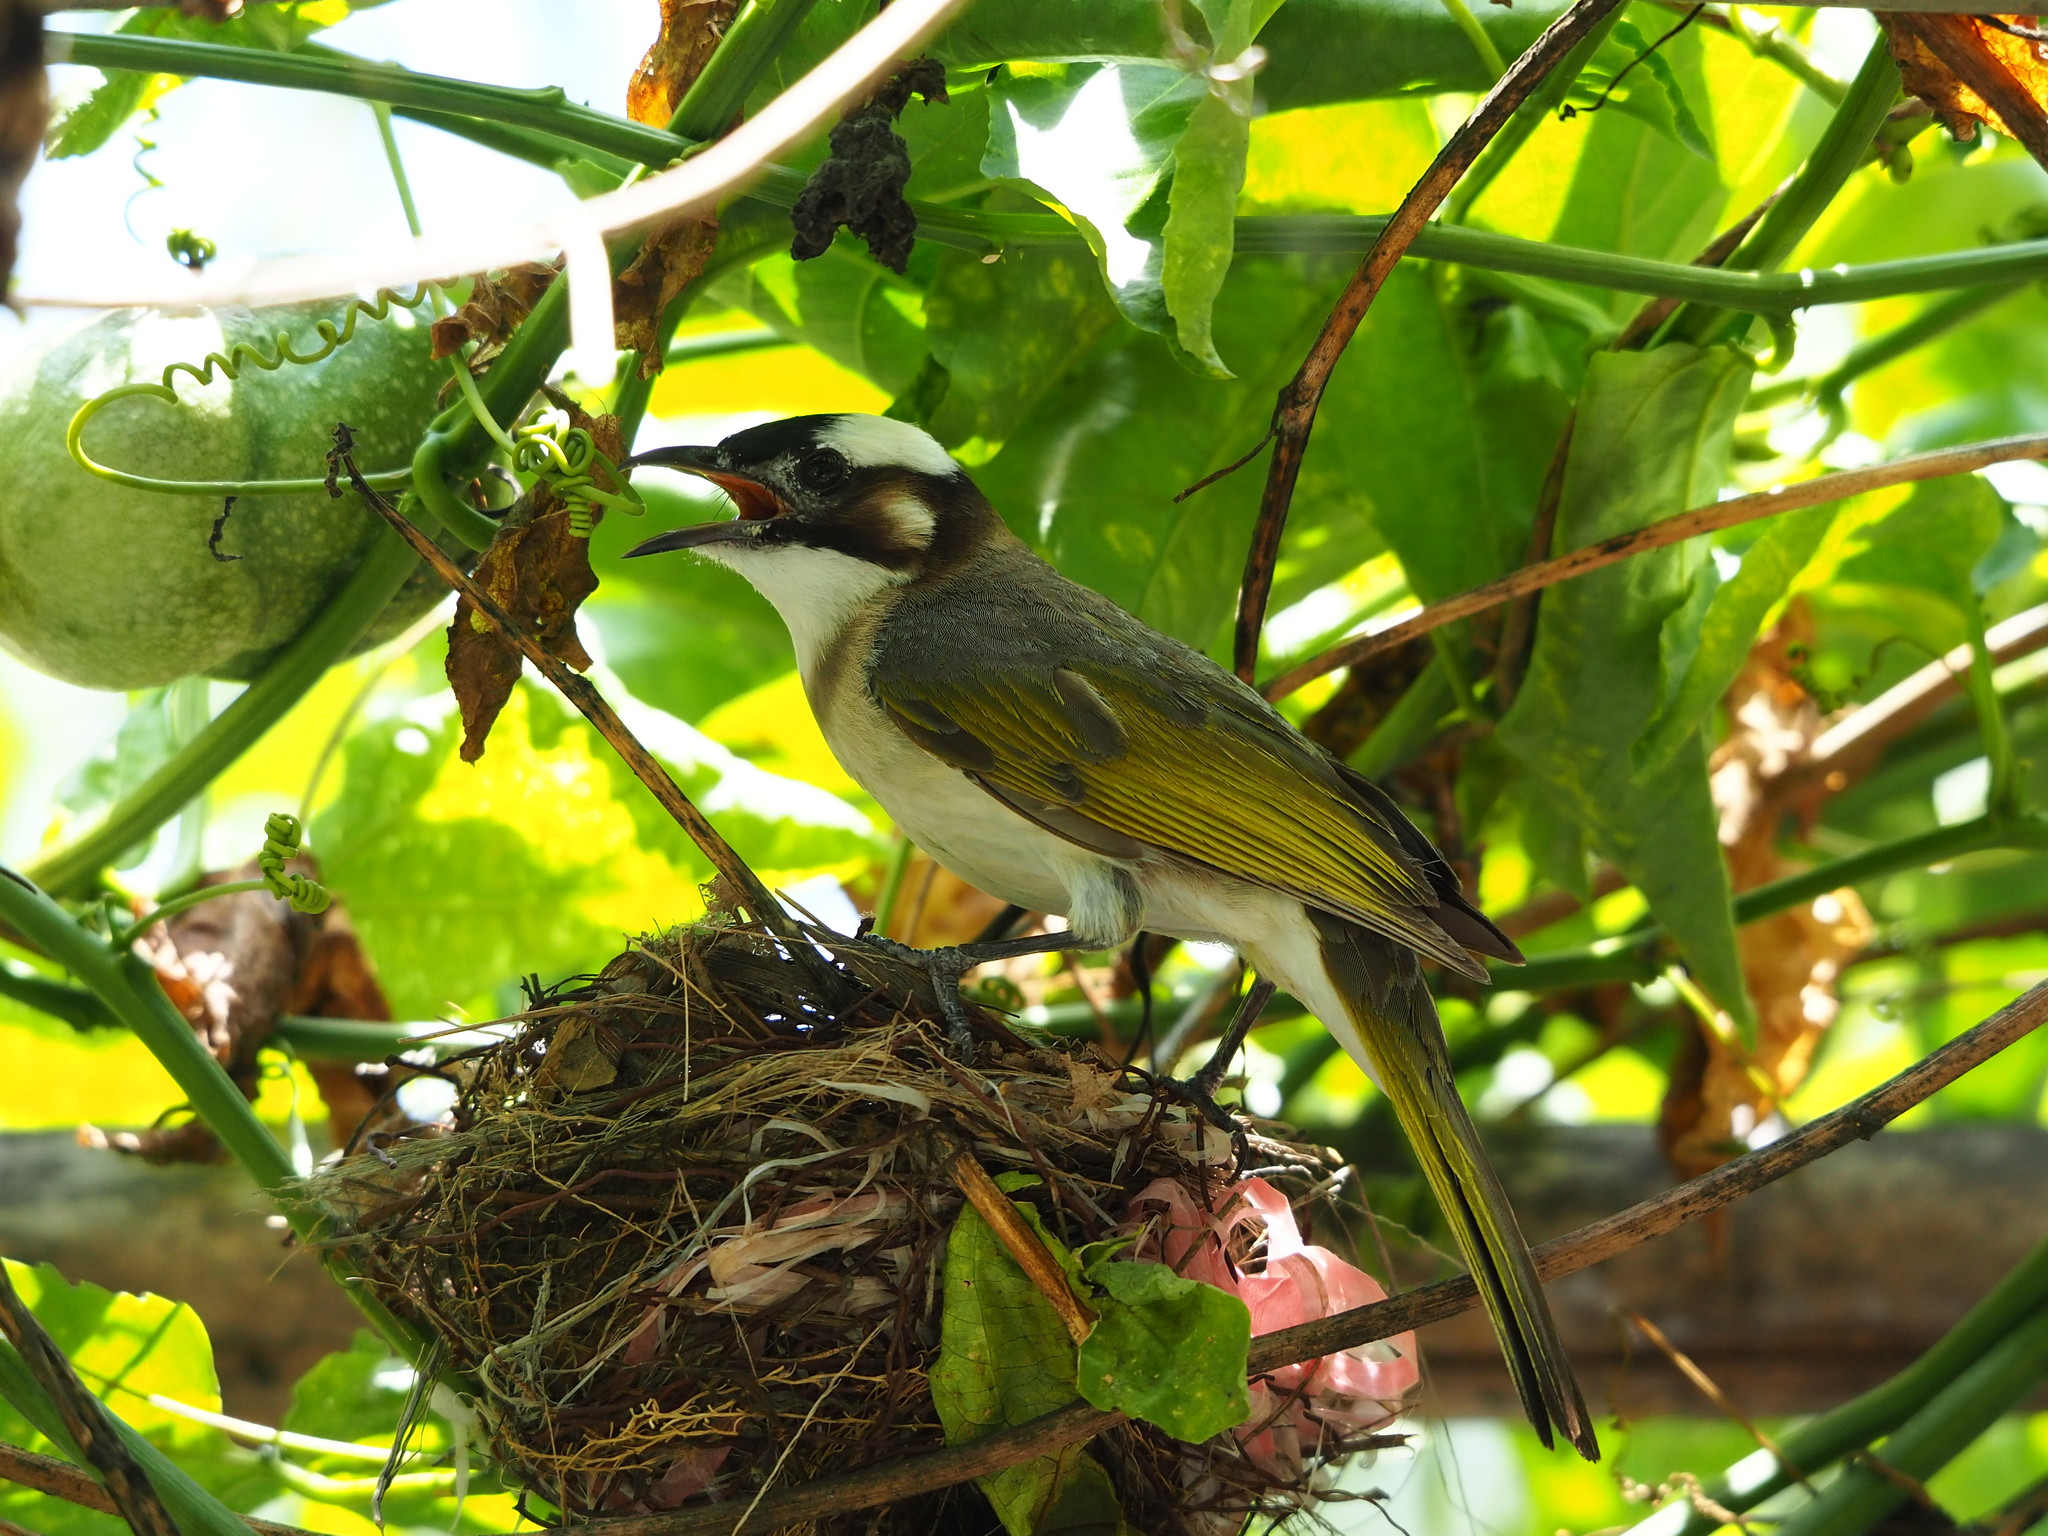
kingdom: Animalia
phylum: Chordata
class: Aves
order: Passeriformes
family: Pycnonotidae
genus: Pycnonotus
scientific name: Pycnonotus sinensis
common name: Light-vented bulbul
